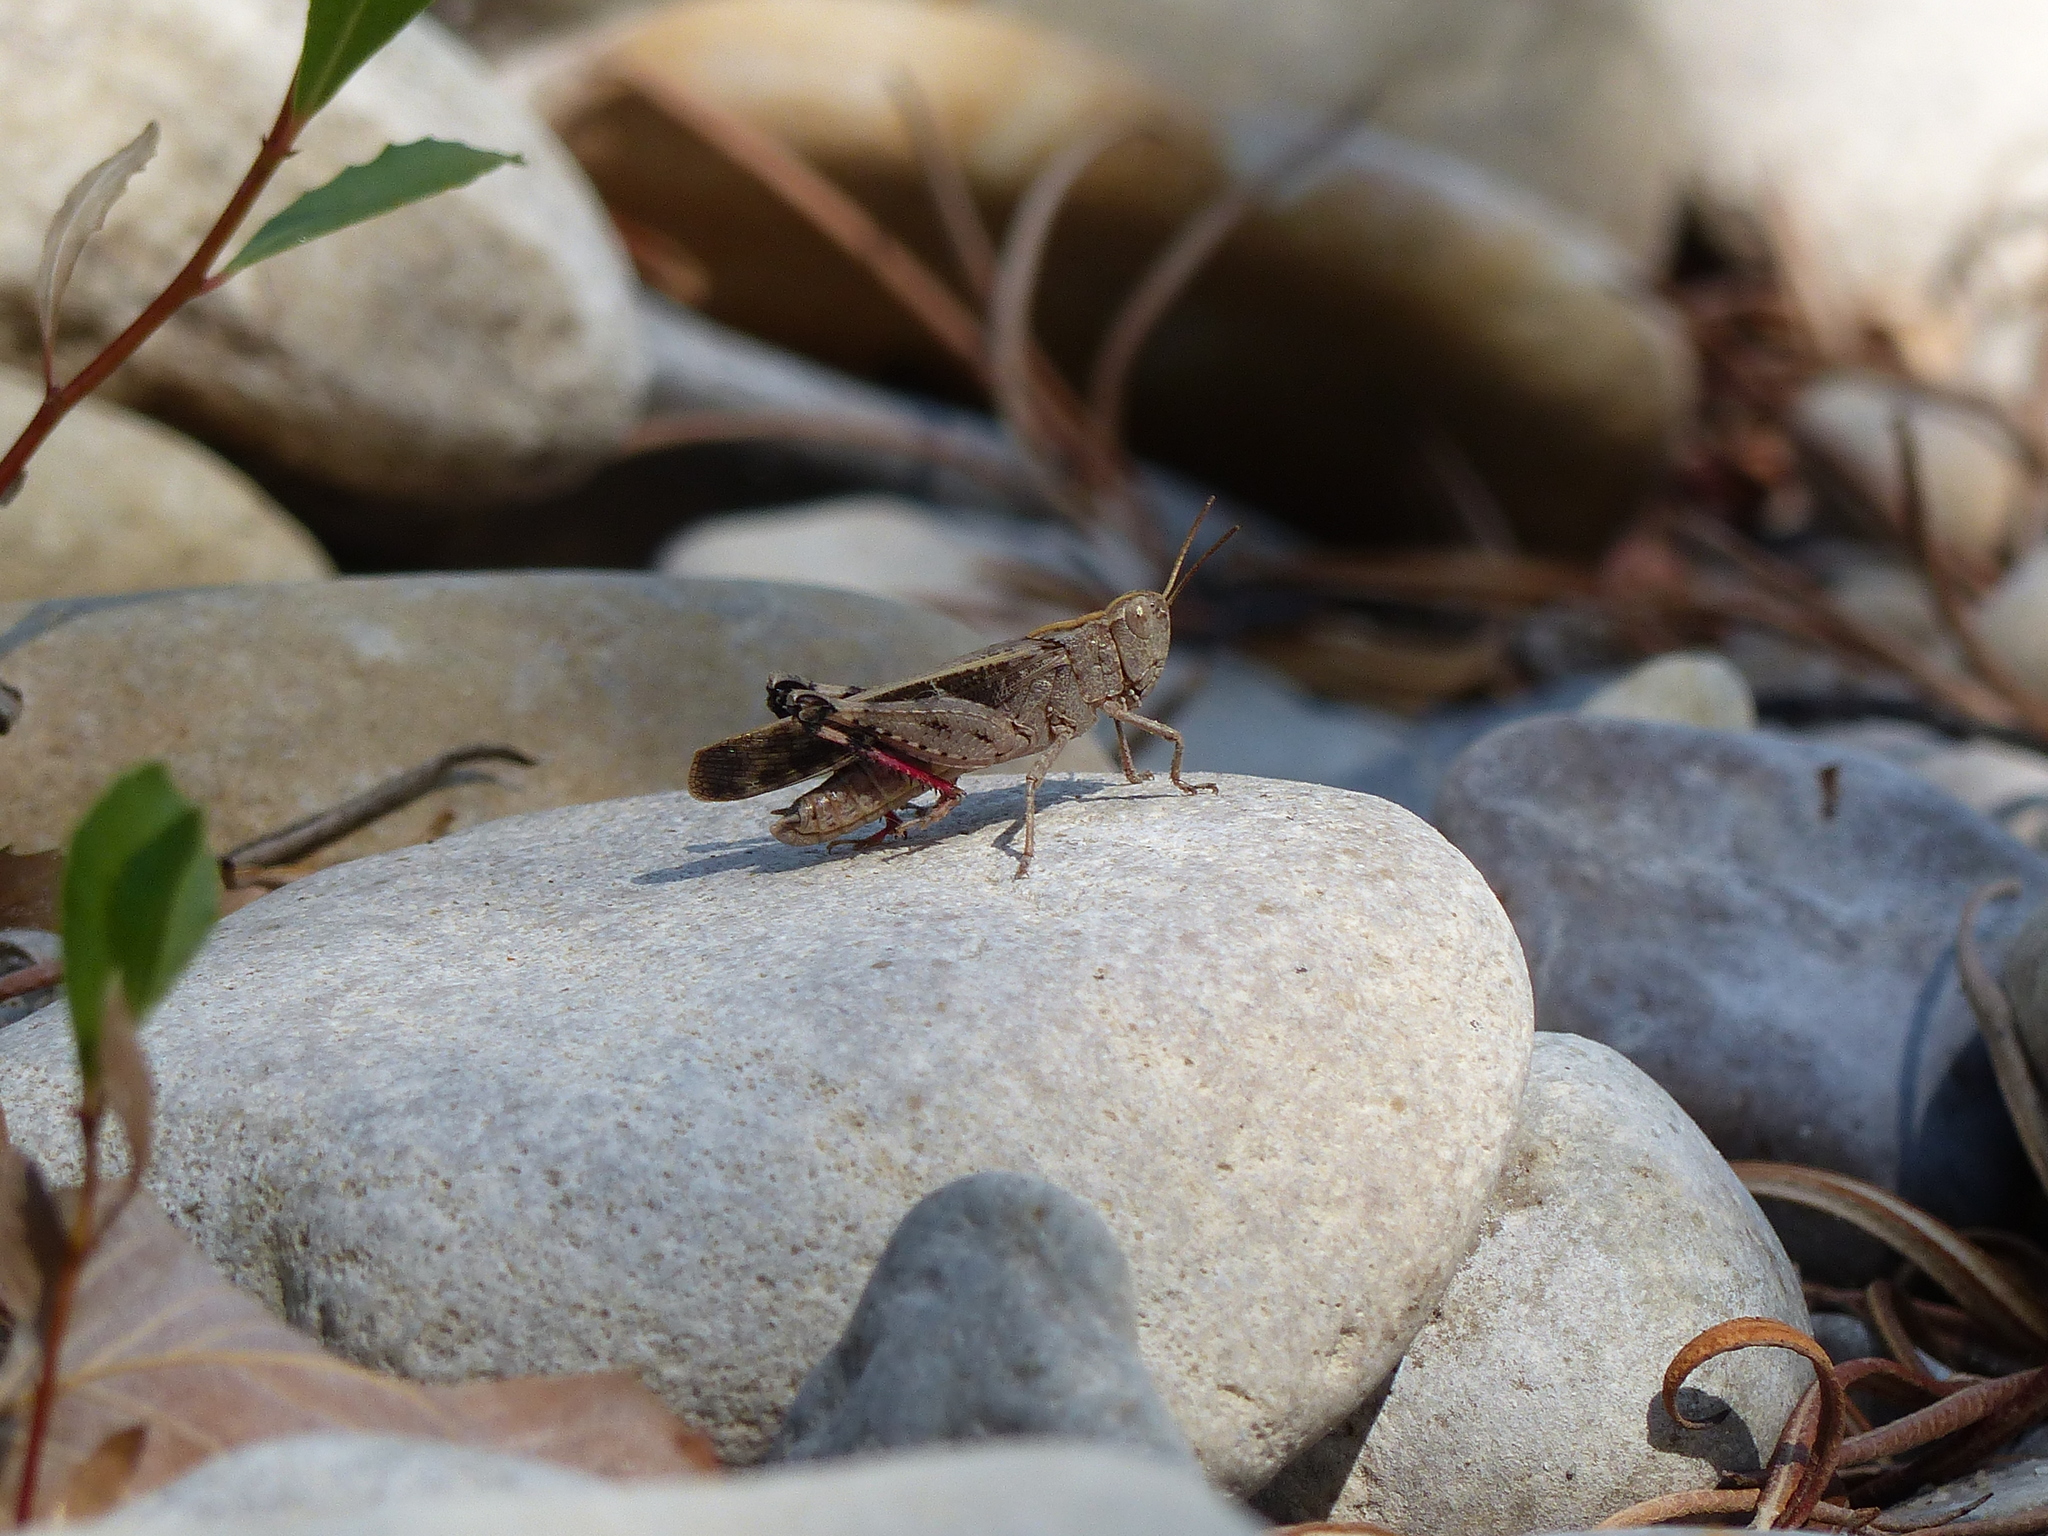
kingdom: Animalia
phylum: Arthropoda
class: Insecta
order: Orthoptera
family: Acrididae
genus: Aiolopus
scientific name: Aiolopus strepens
